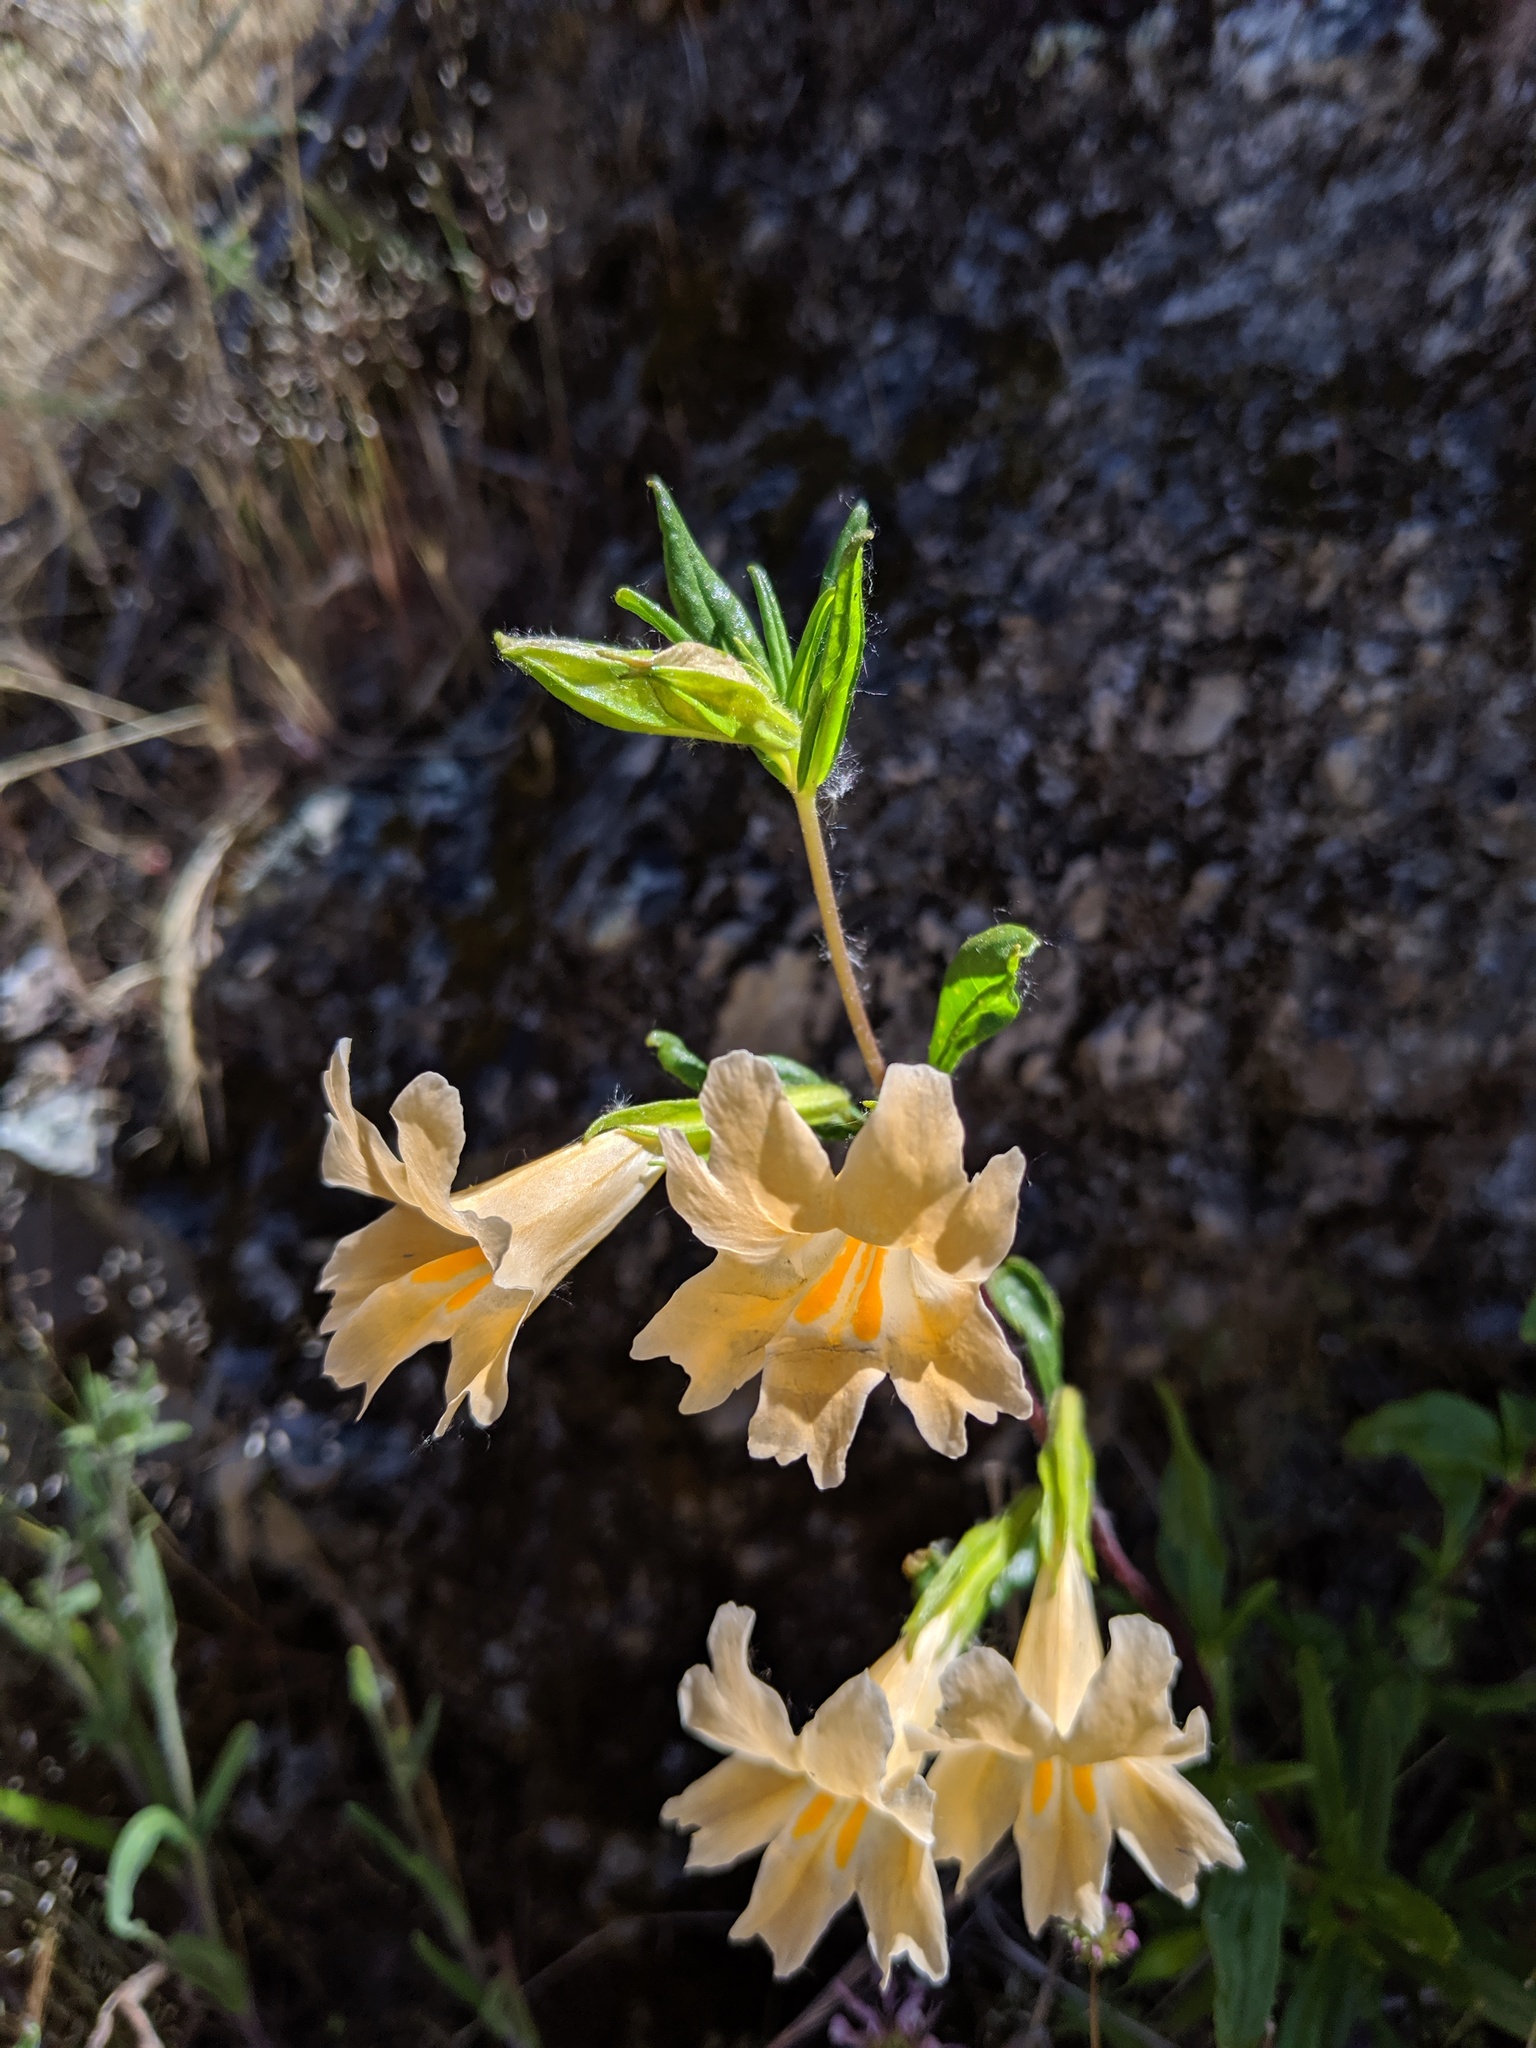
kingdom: Plantae
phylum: Tracheophyta
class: Magnoliopsida
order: Lamiales
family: Phrymaceae
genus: Diplacus
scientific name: Diplacus linearis
